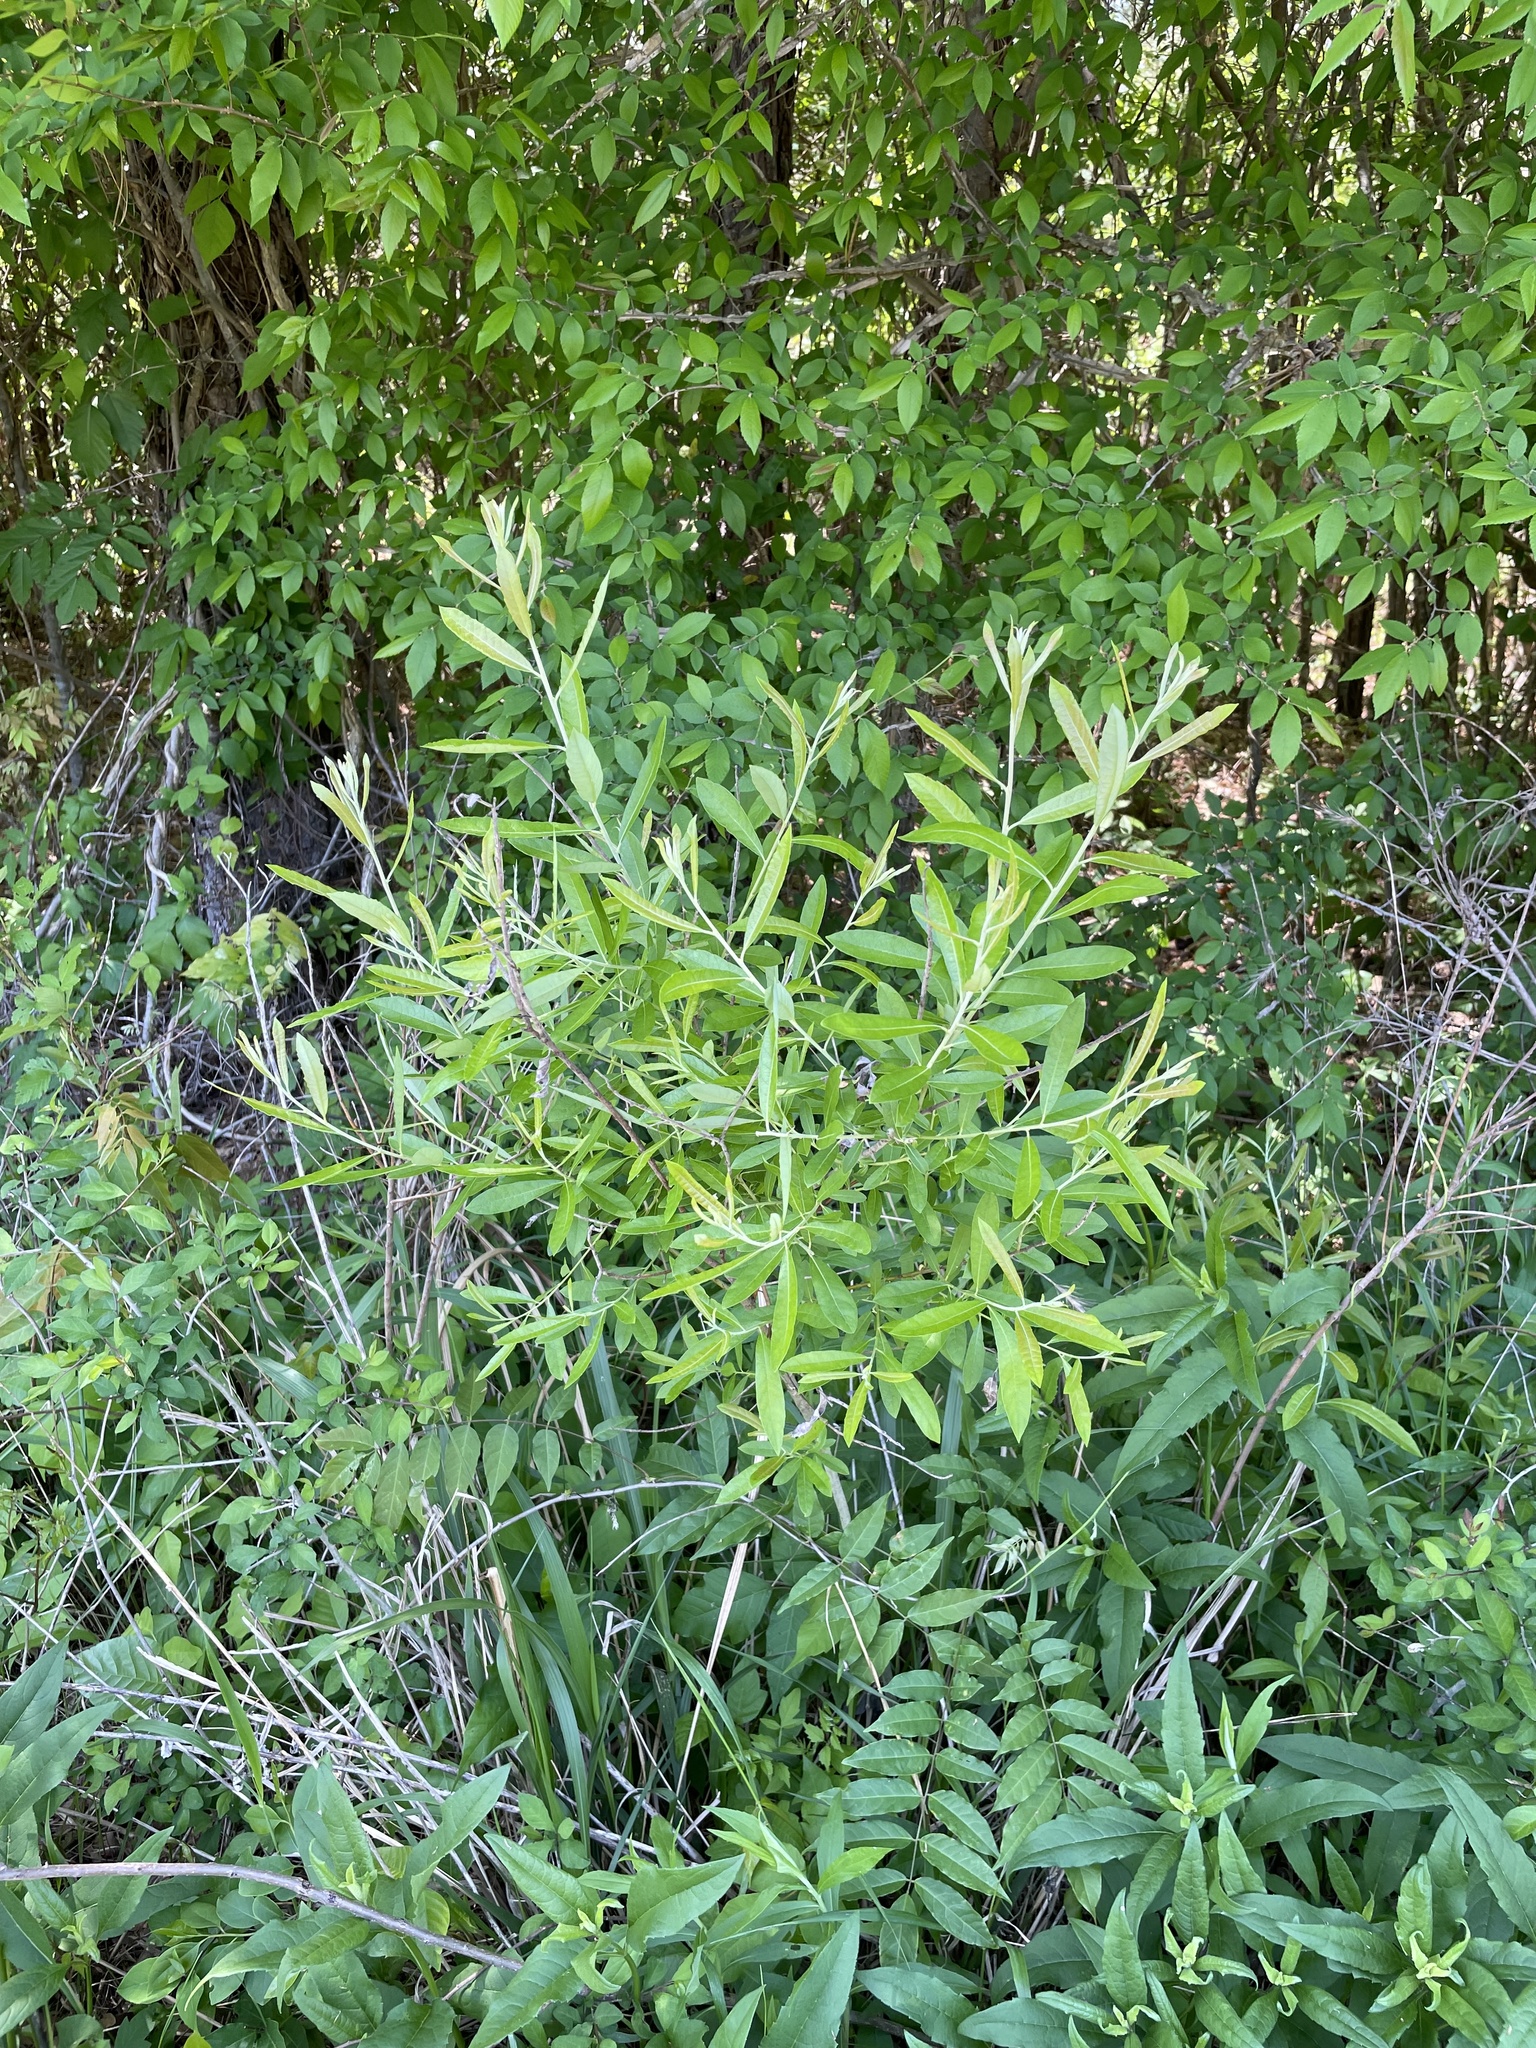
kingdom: Plantae
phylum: Tracheophyta
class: Magnoliopsida
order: Malpighiales
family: Salicaceae
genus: Salix
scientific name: Salix humilis
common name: Prairie willow
